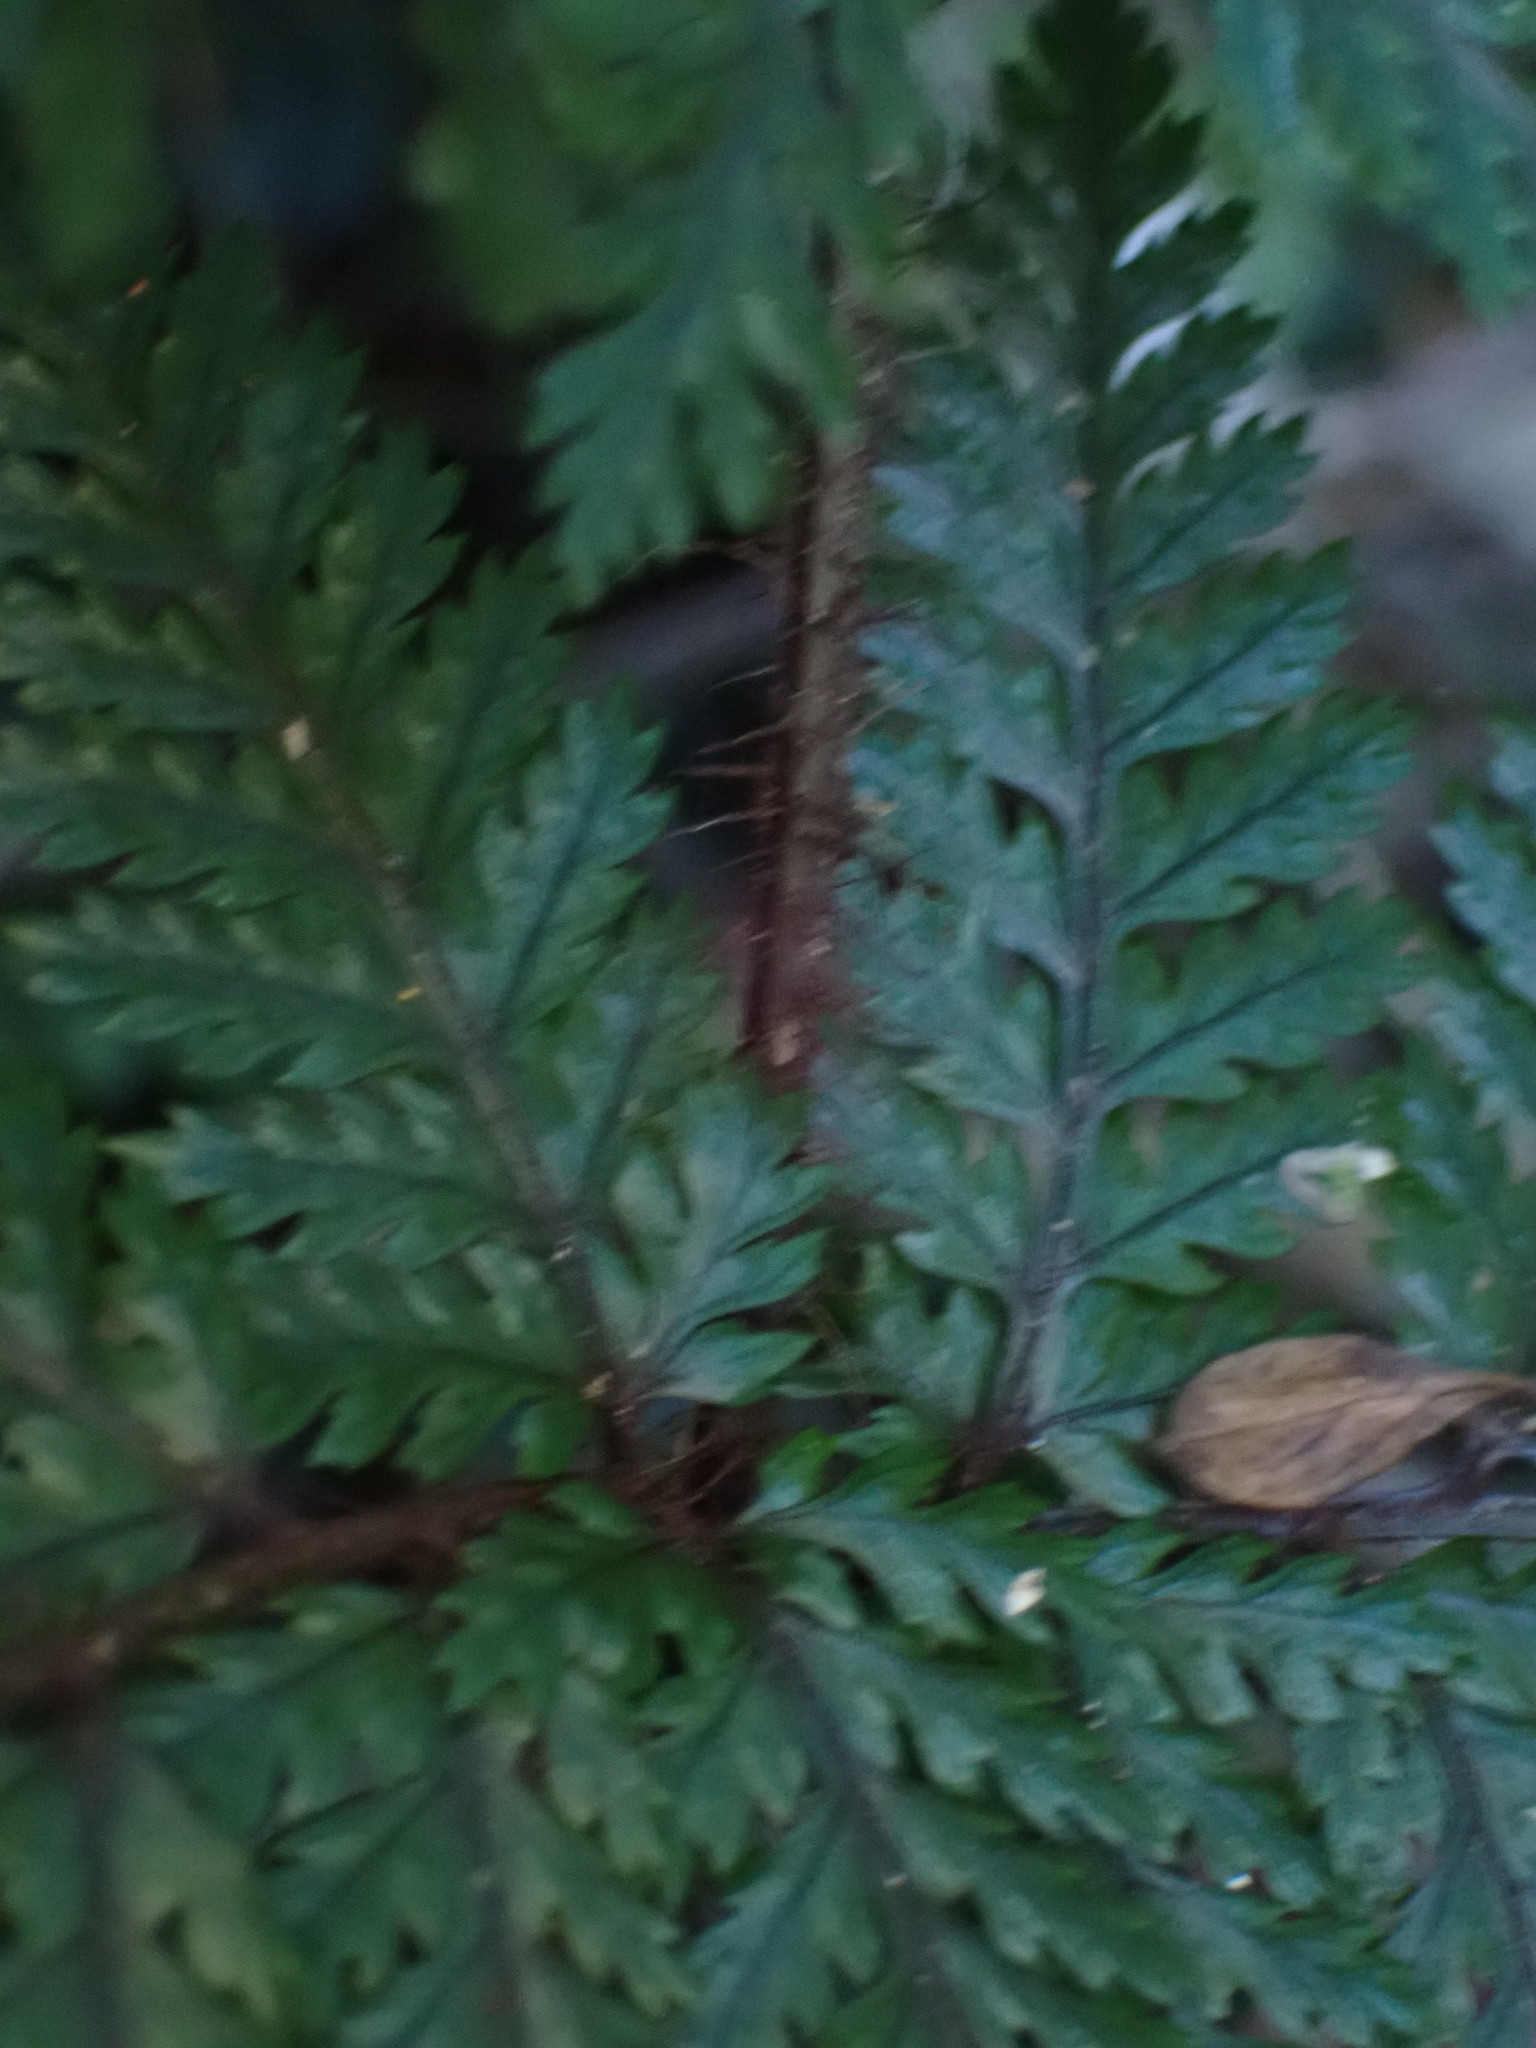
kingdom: Plantae
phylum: Tracheophyta
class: Polypodiopsida
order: Polypodiales
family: Dryopteridaceae
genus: Lastreopsis
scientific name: Lastreopsis hispida
